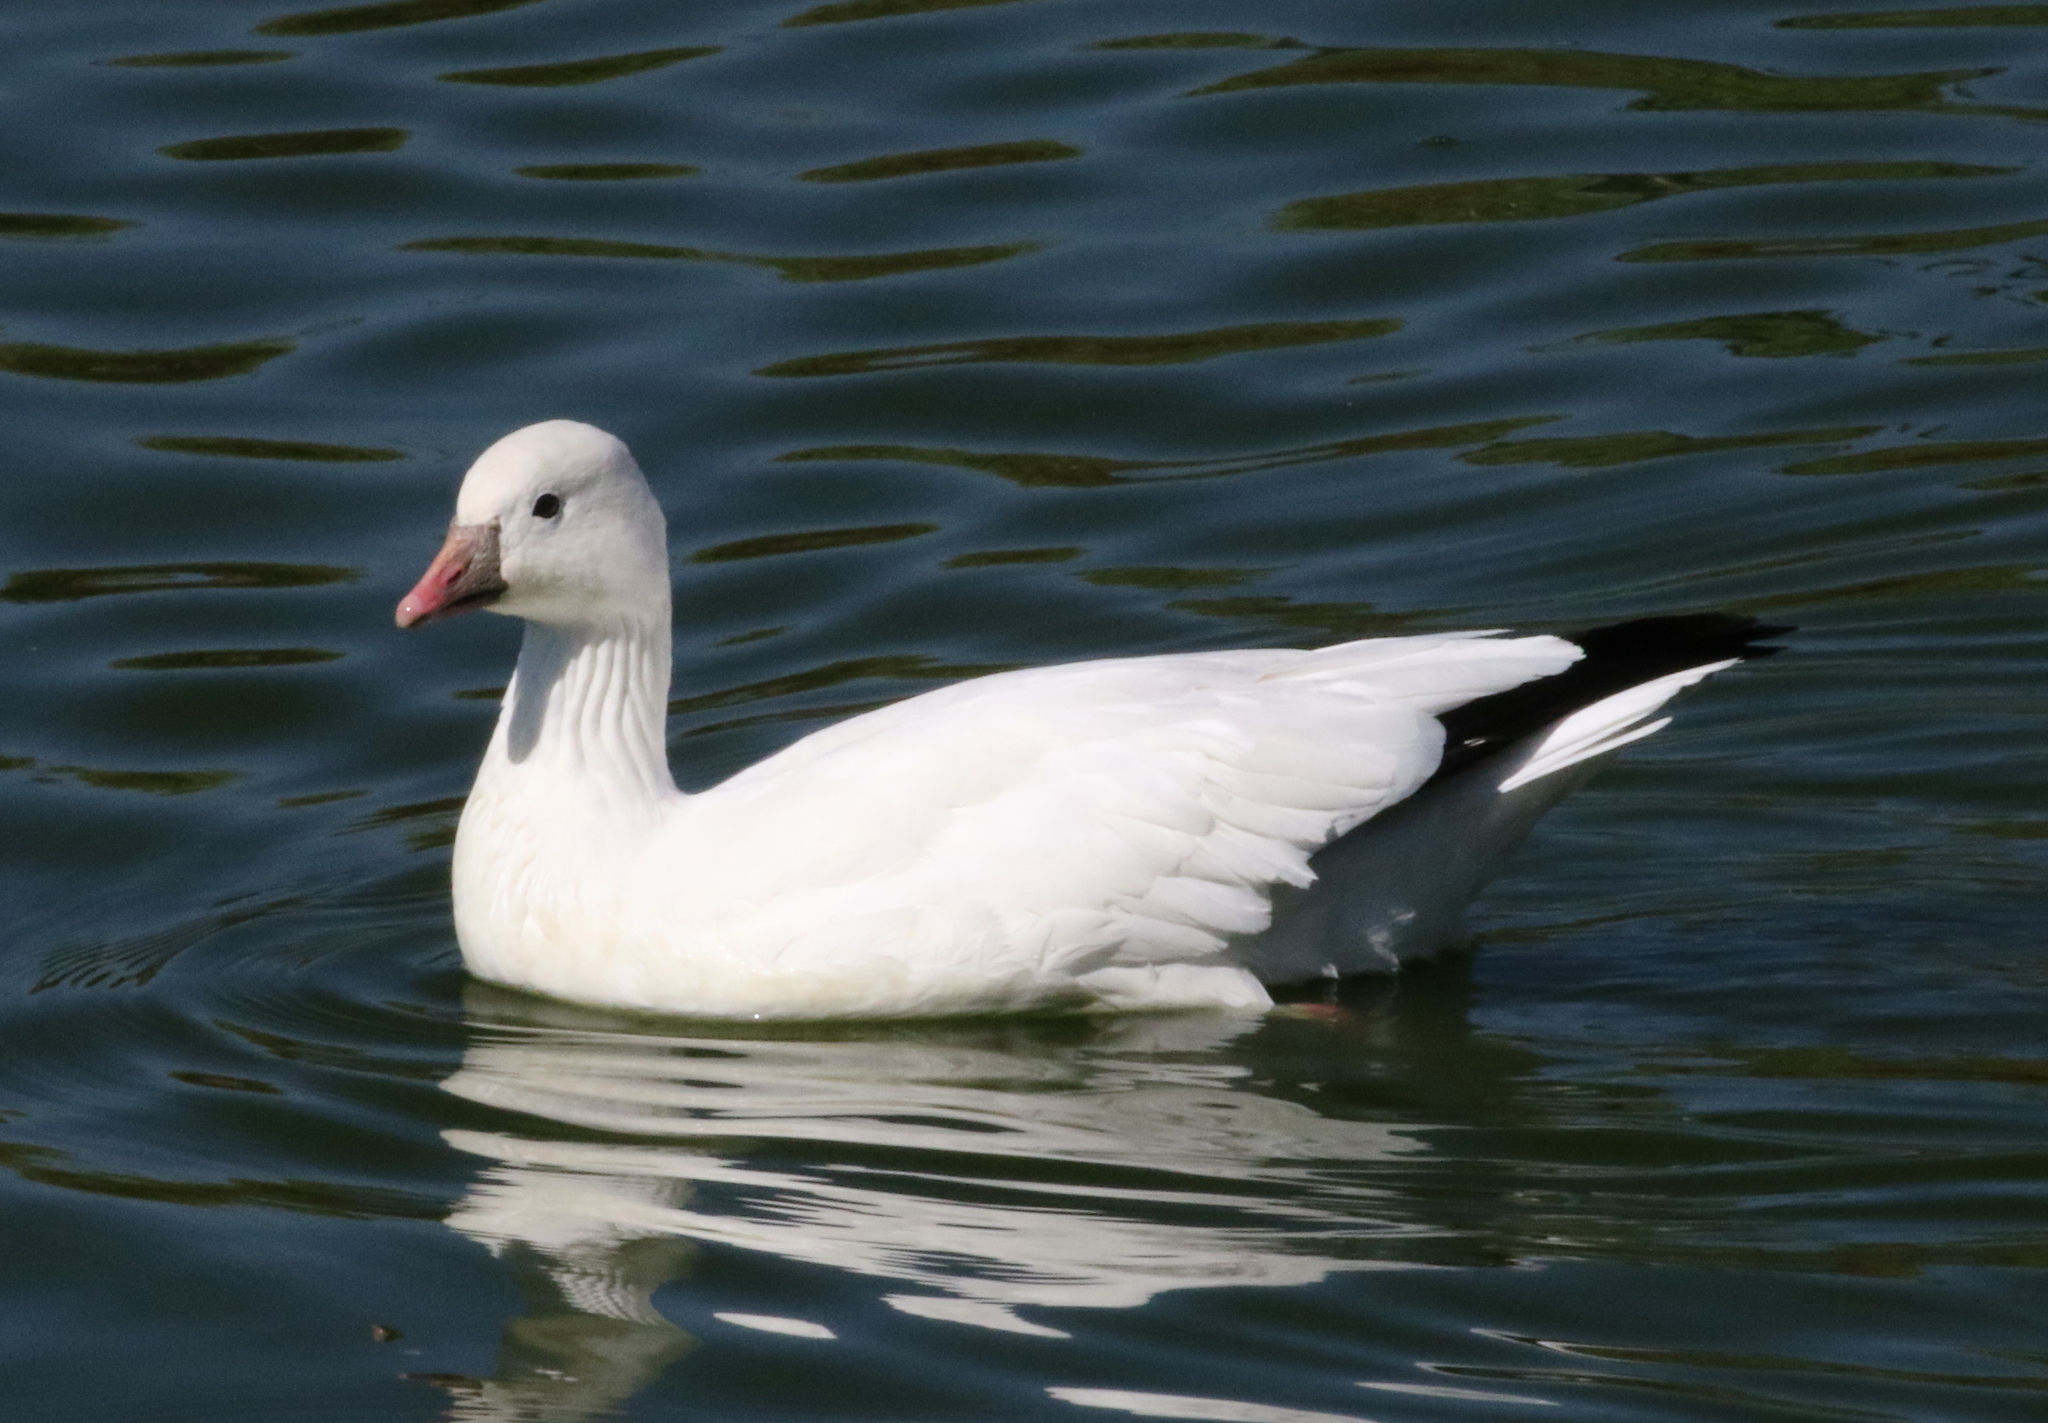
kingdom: Animalia
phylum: Chordata
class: Aves
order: Anseriformes
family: Anatidae
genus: Anser
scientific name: Anser rossii
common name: Ross's goose
